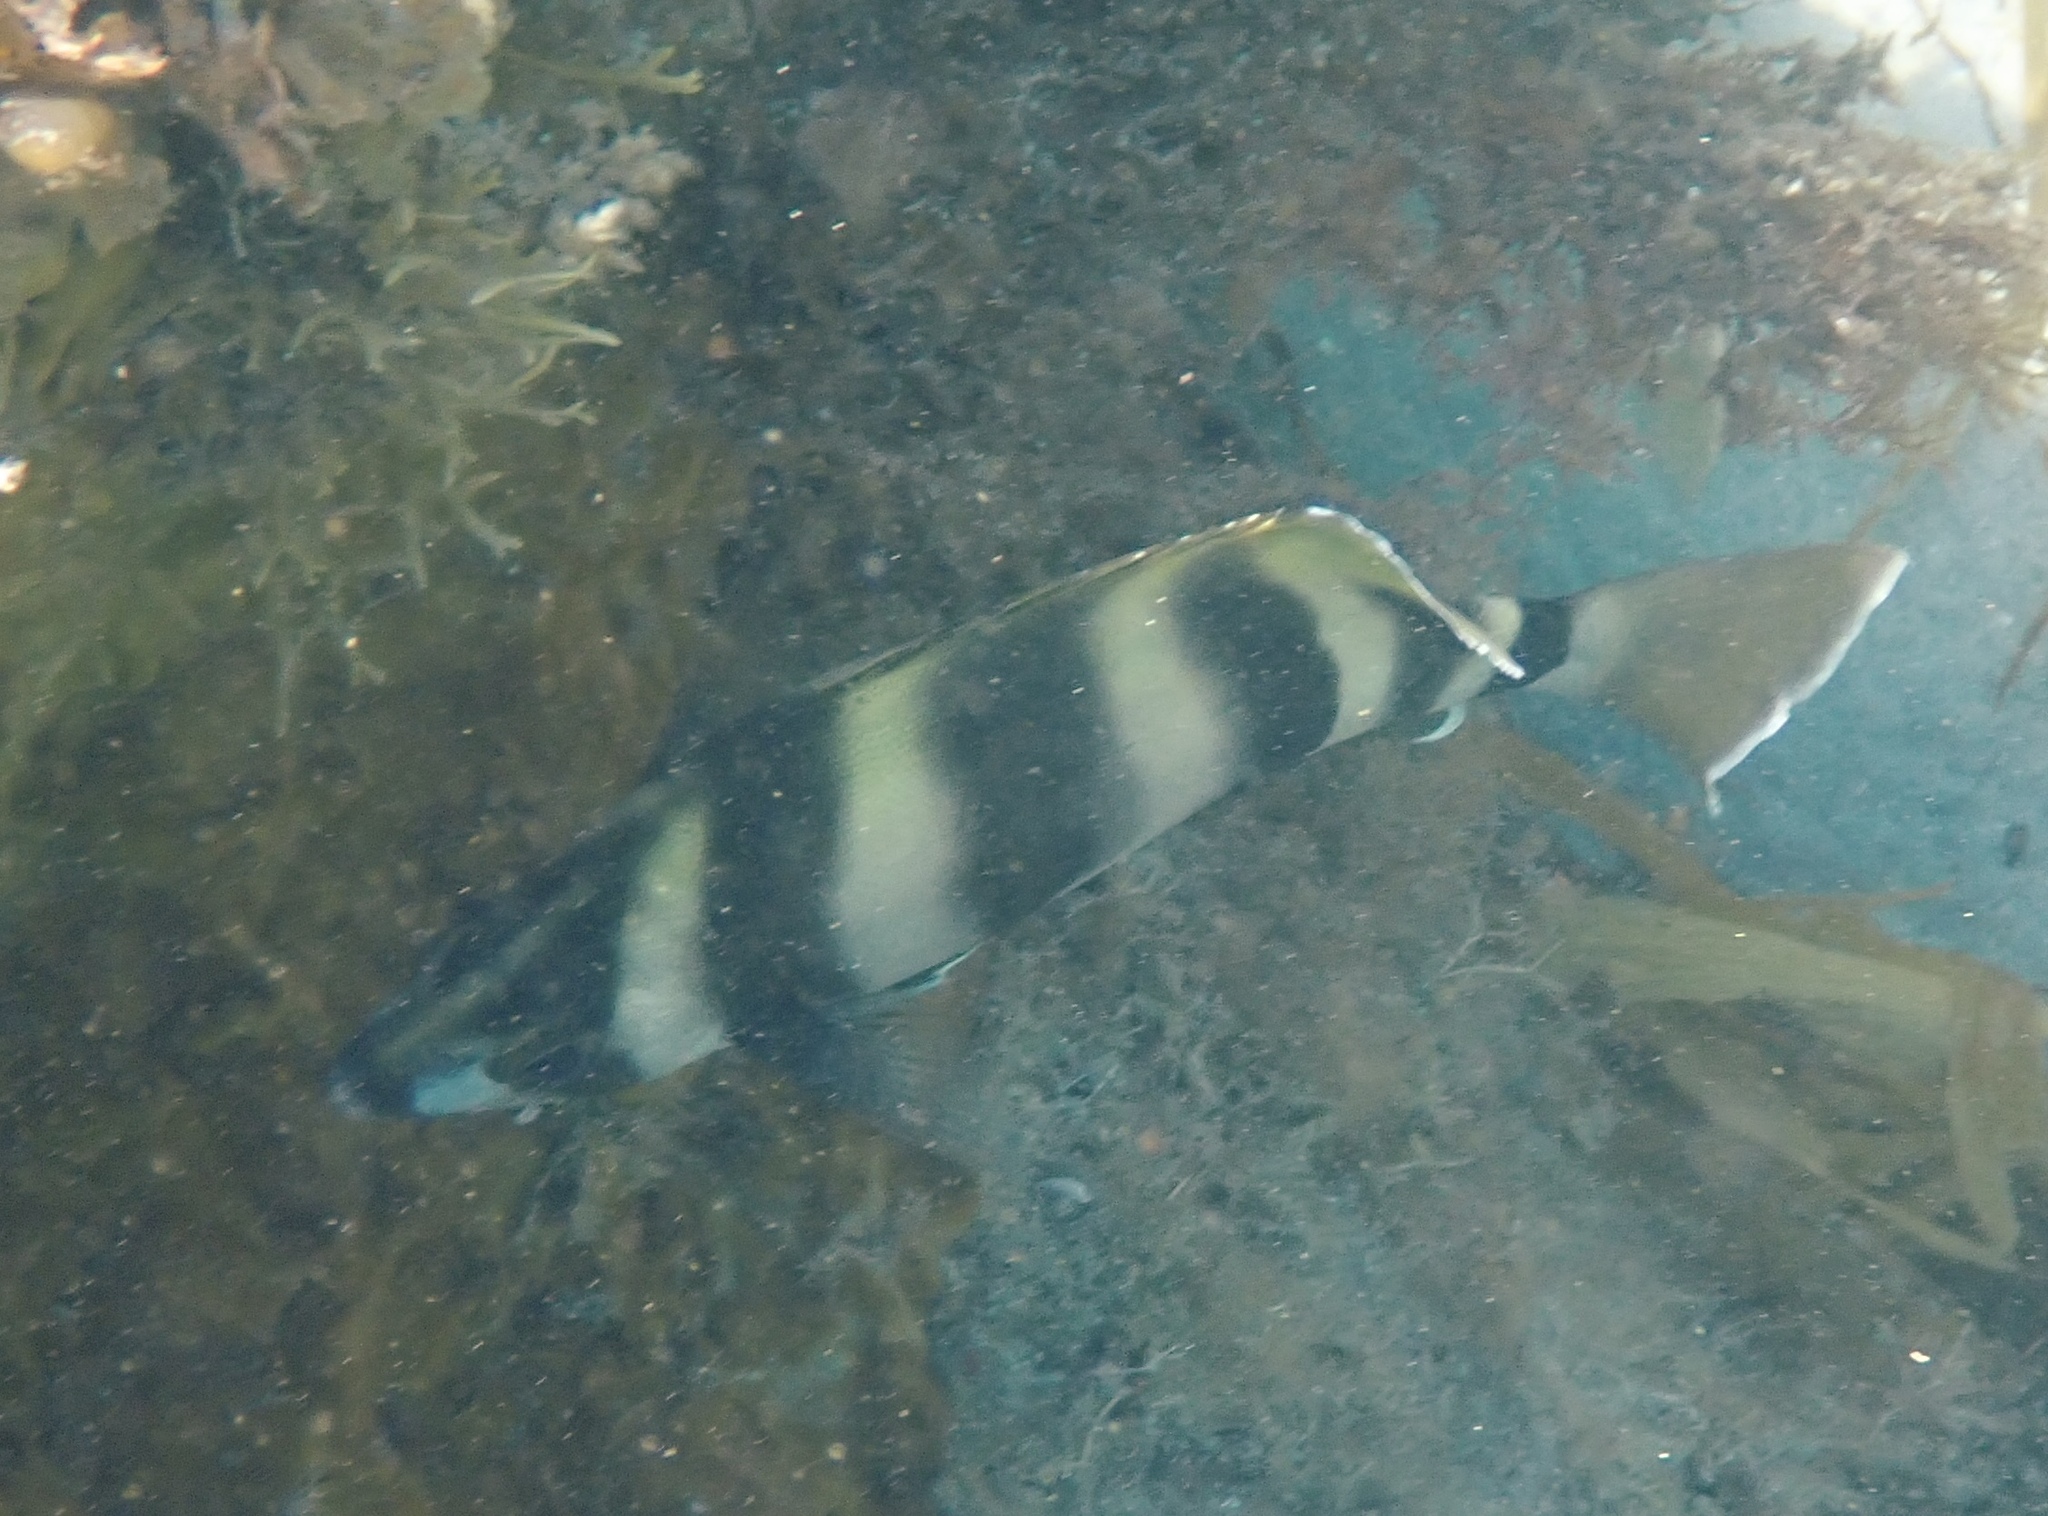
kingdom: Animalia
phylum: Chordata
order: Perciformes
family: Kyphosidae
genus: Tilodon
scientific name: Tilodon sexfasciatus
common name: Moonlighter
